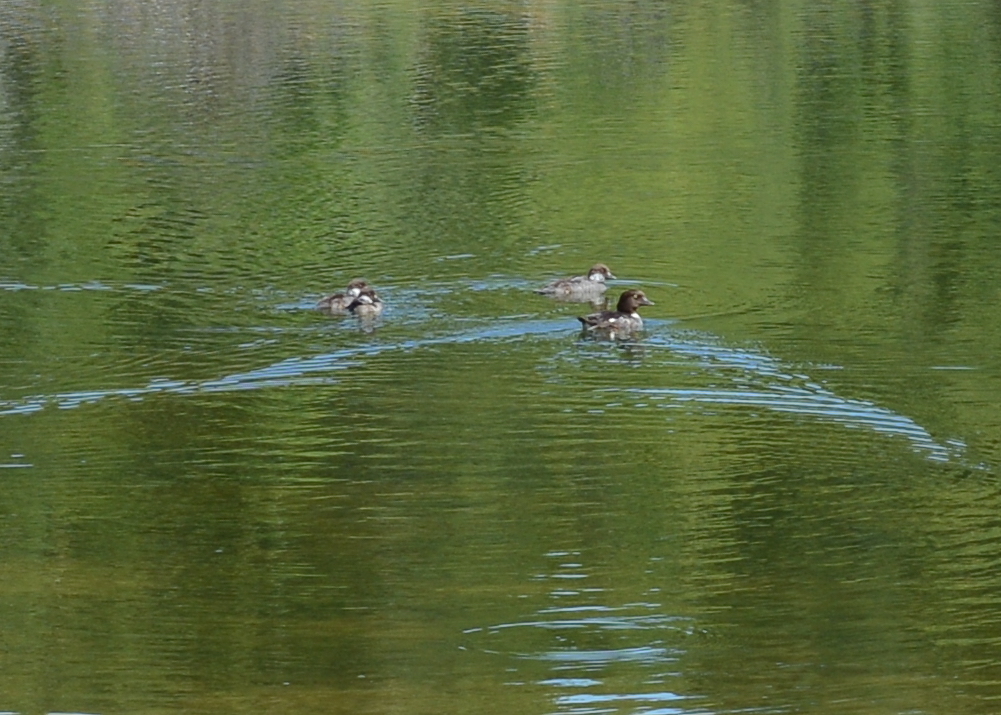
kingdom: Animalia
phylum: Chordata
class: Aves
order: Anseriformes
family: Anatidae
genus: Bucephala
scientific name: Bucephala islandica
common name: Barrow's goldeneye
